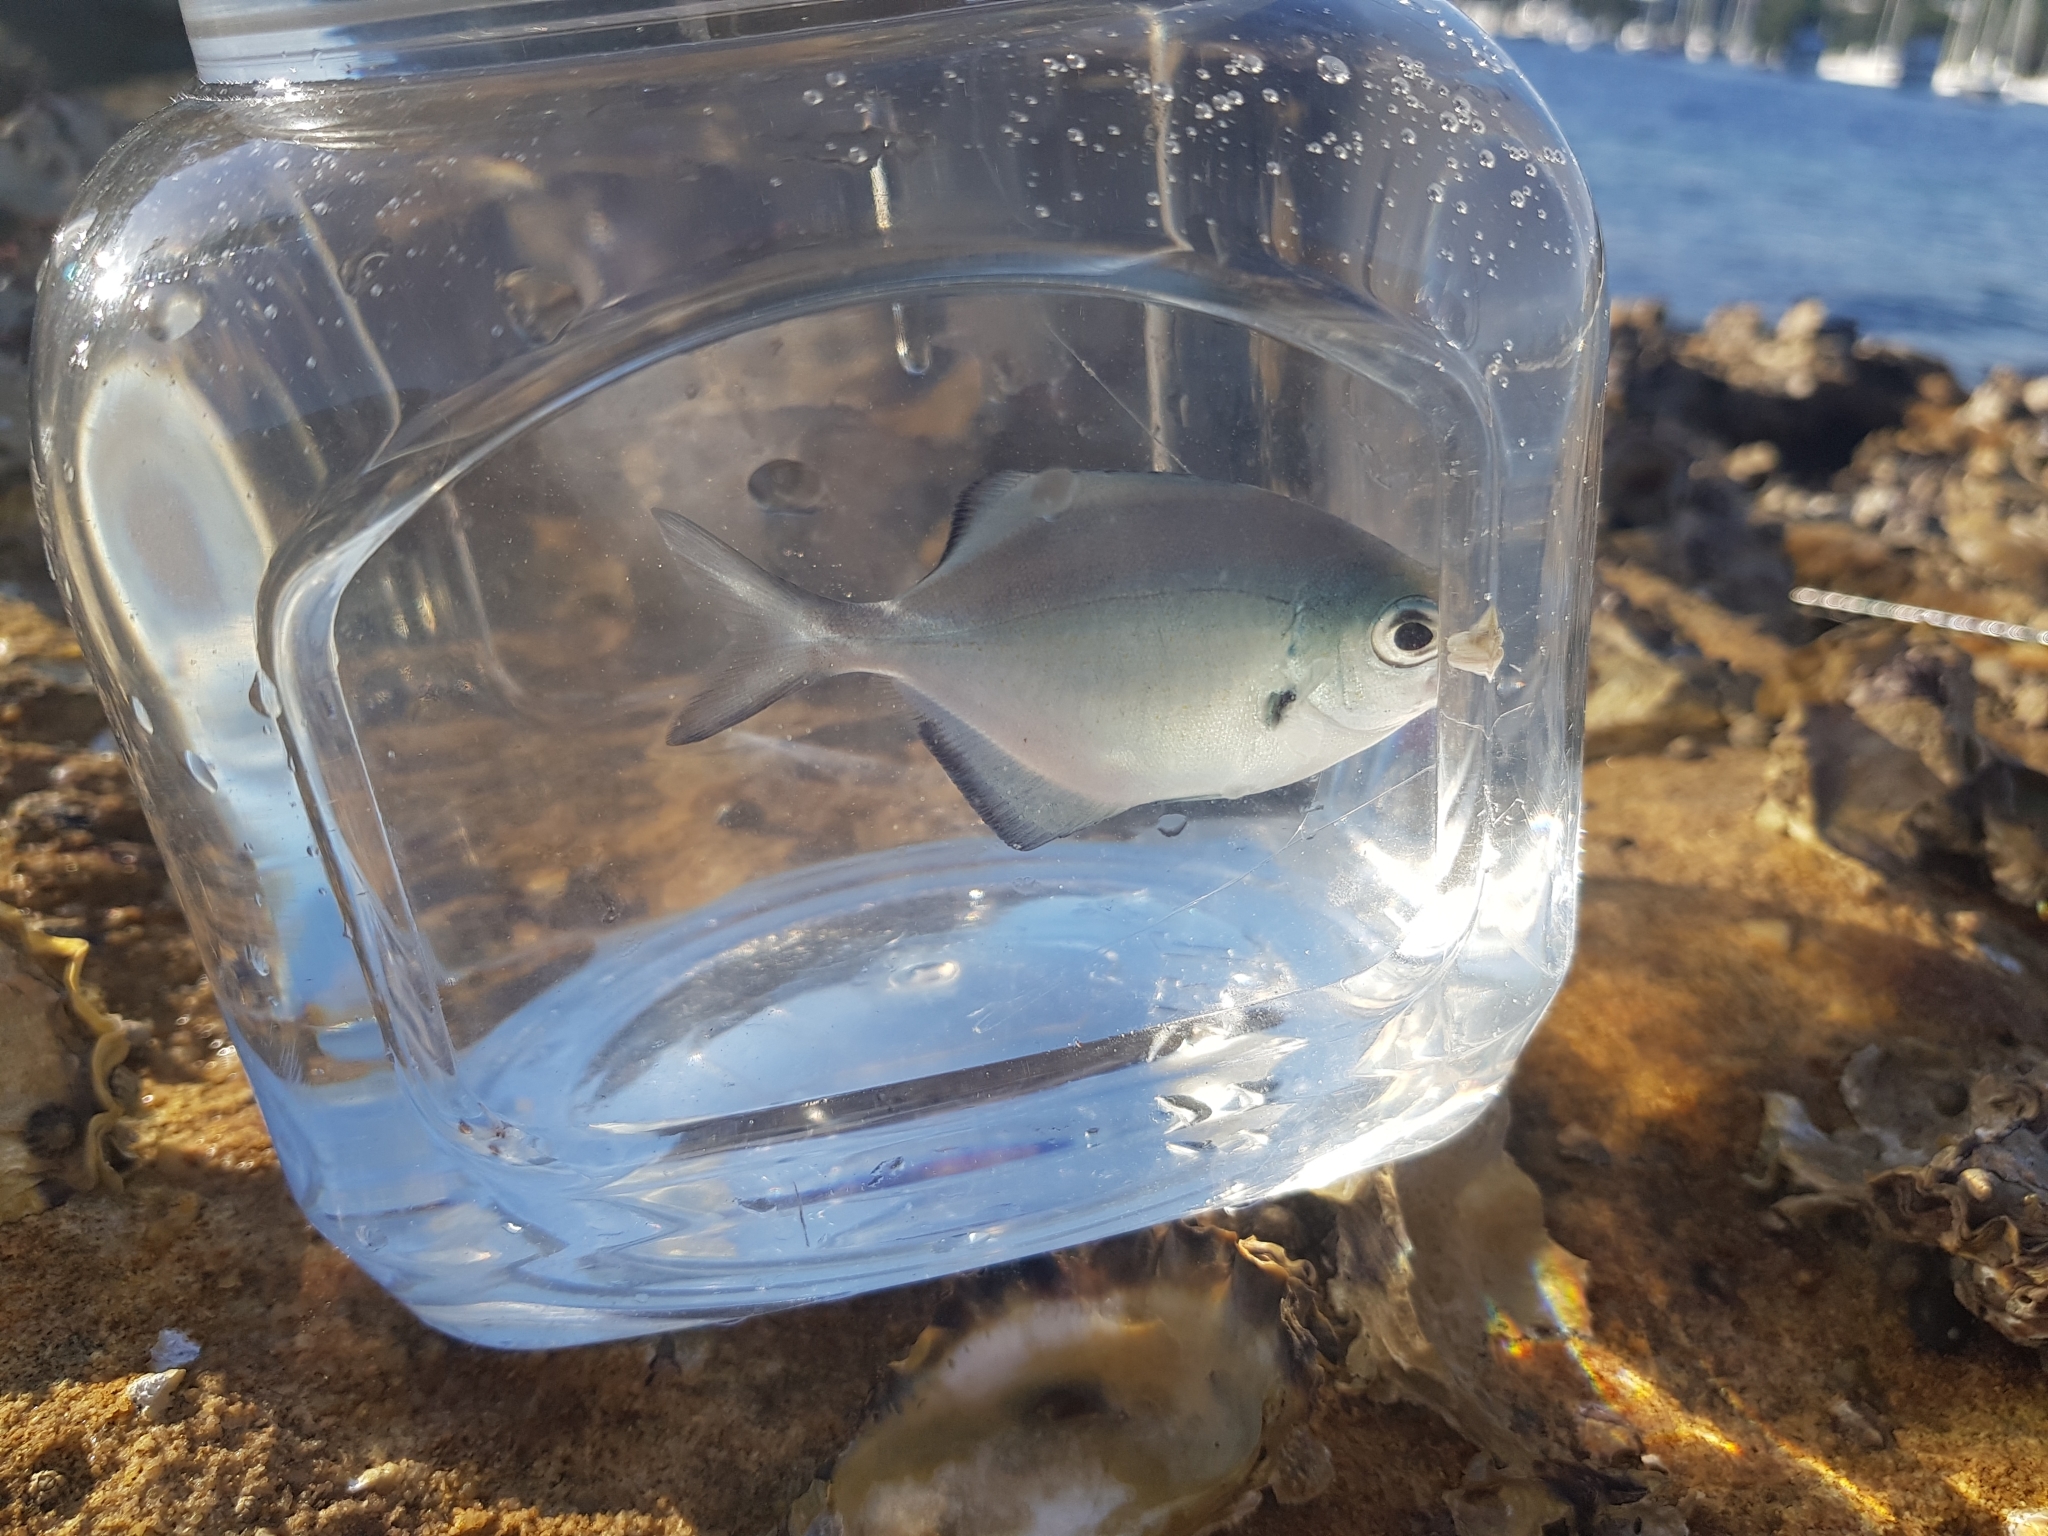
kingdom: Animalia
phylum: Chordata
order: Perciformes
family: Kyphosidae
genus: Scorpis
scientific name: Scorpis lineolata
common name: Sweep
